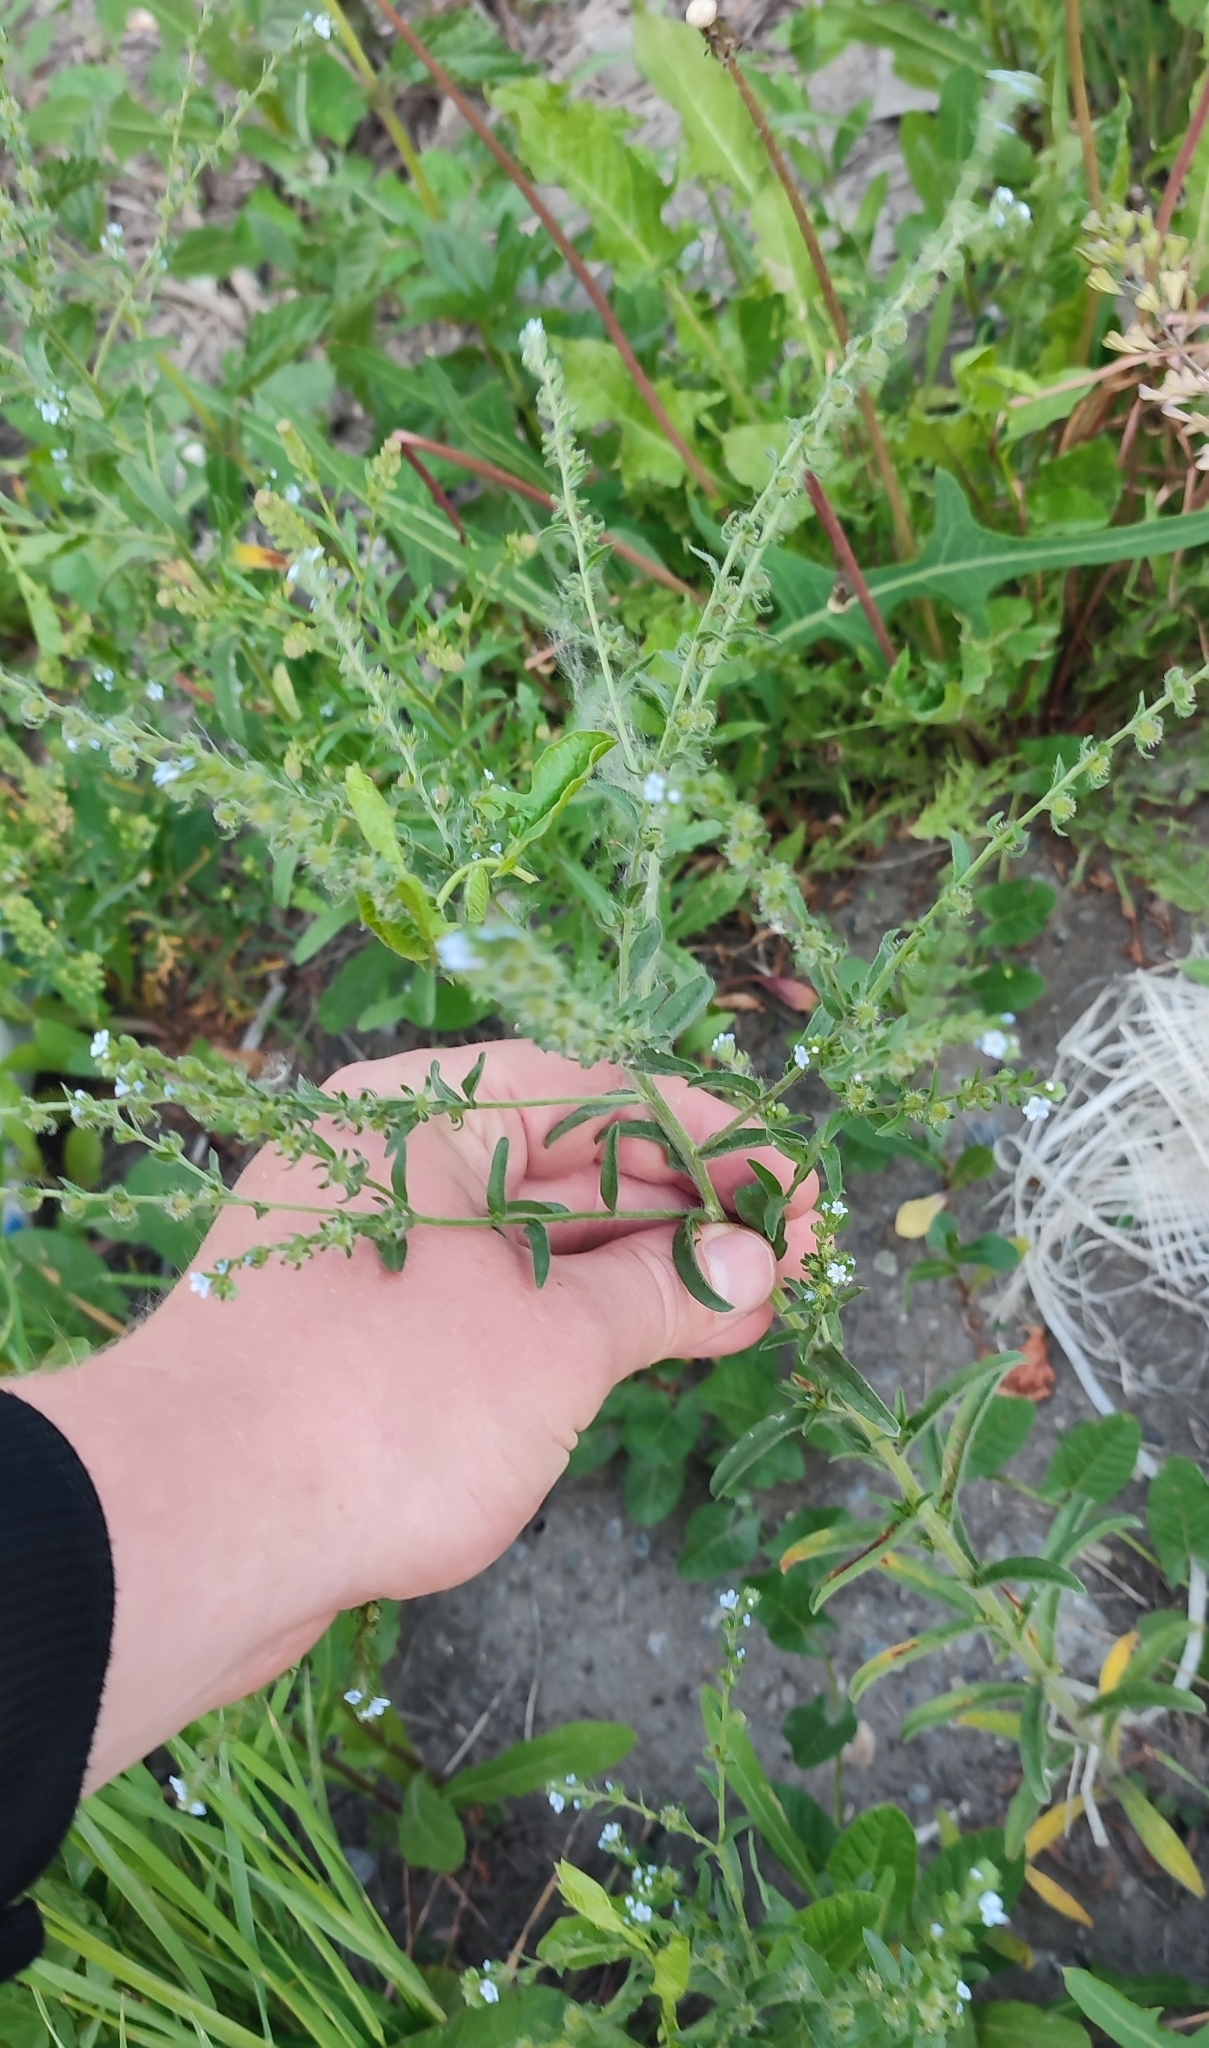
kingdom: Plantae
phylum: Tracheophyta
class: Magnoliopsida
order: Boraginales
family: Boraginaceae
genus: Lappula
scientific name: Lappula squarrosa
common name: European stickseed
